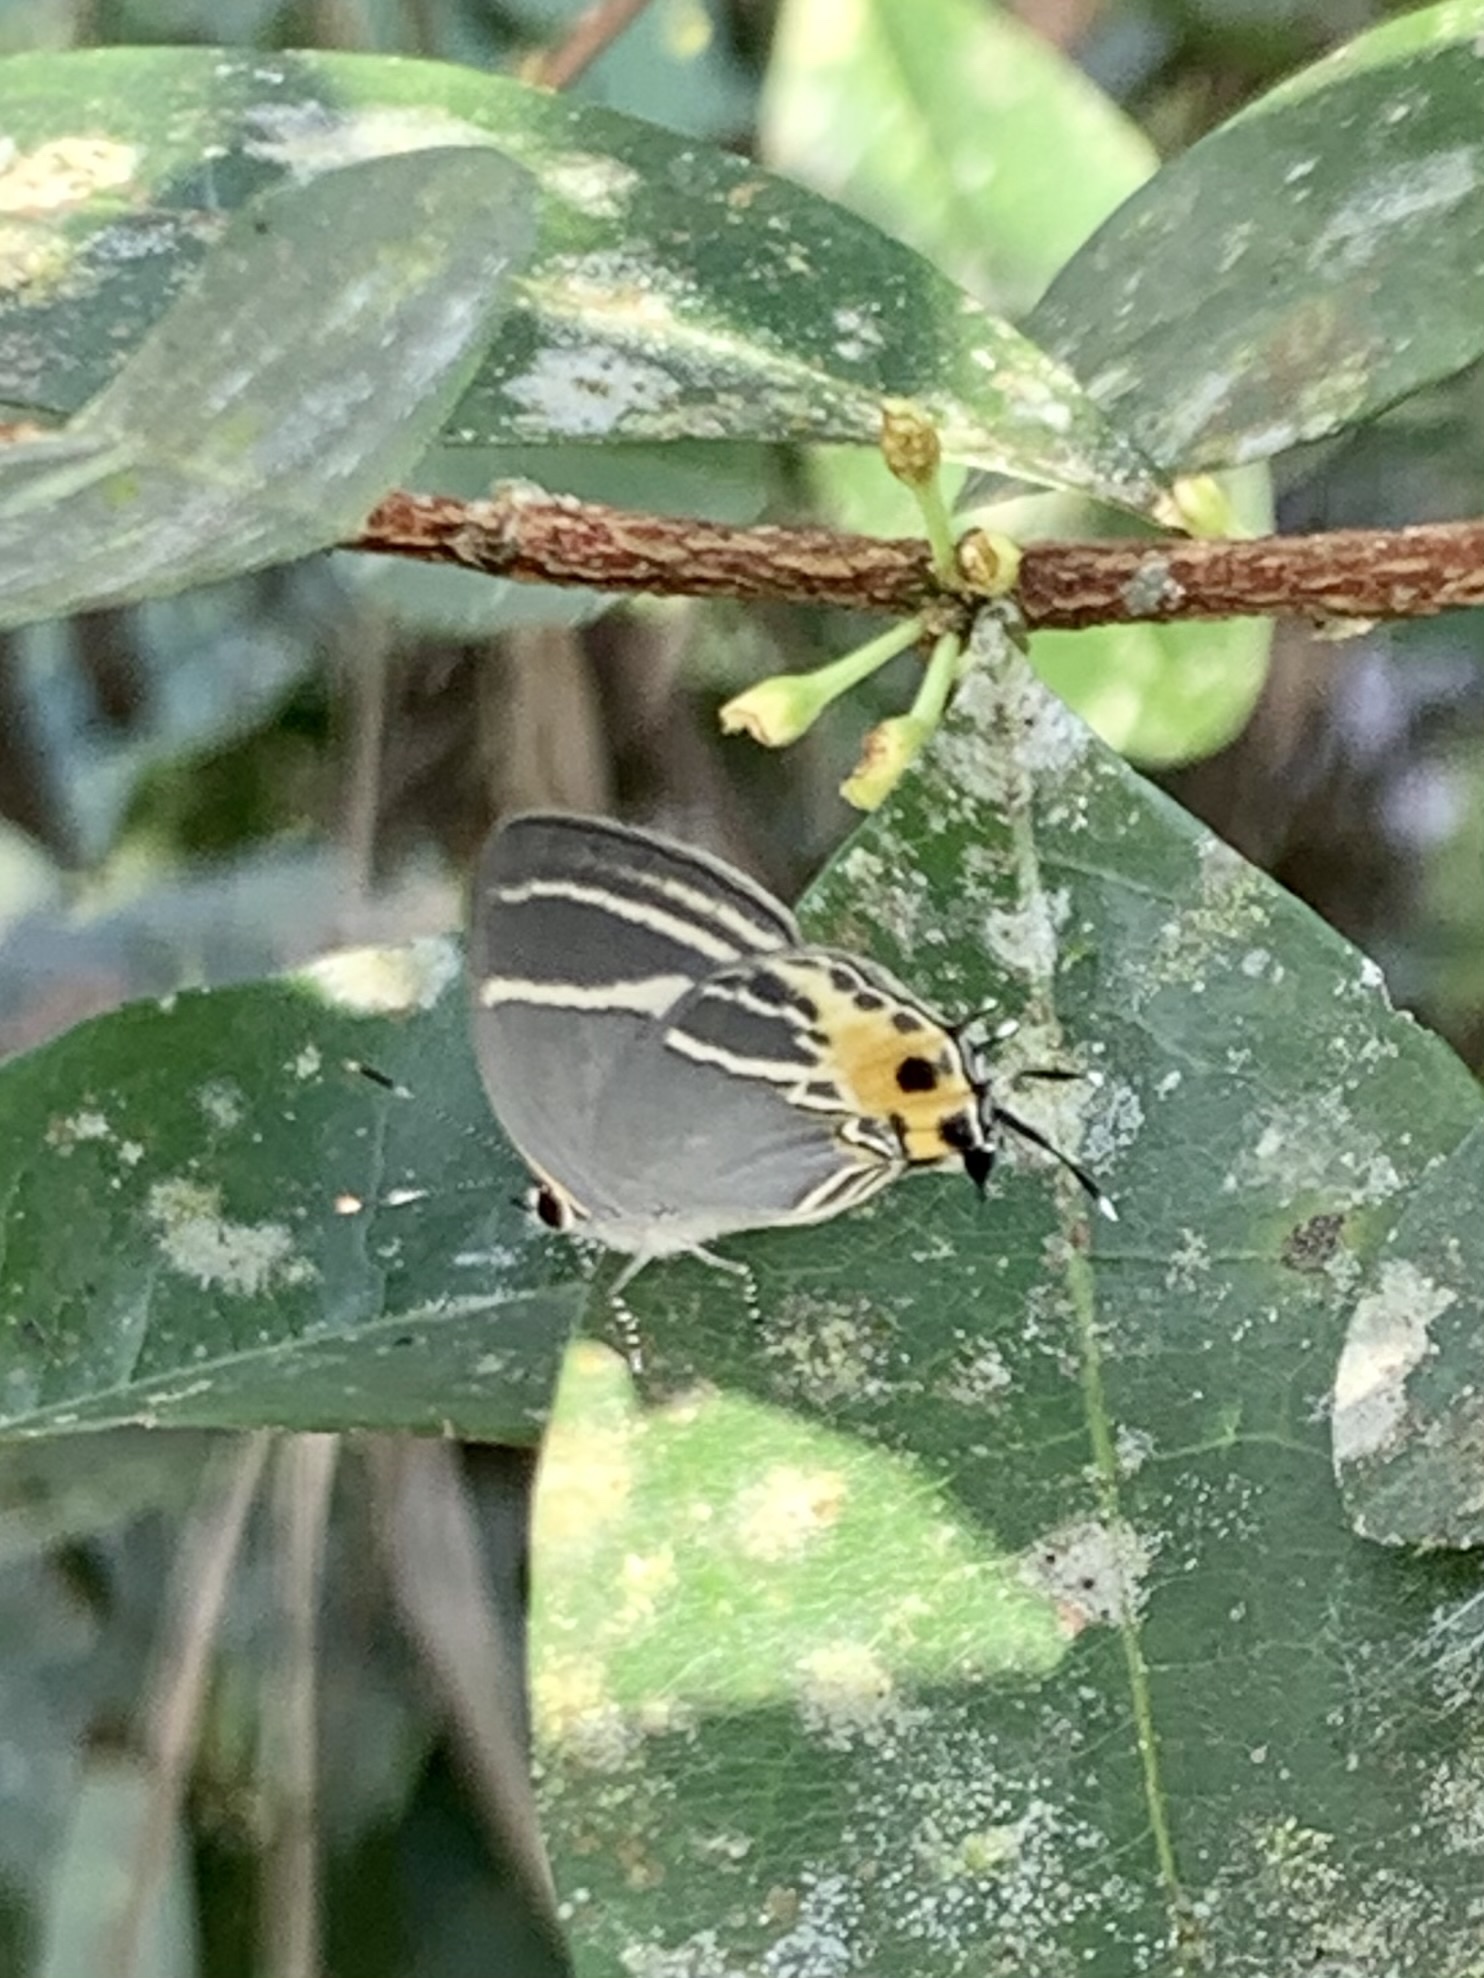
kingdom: Animalia
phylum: Arthropoda
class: Insecta
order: Lepidoptera
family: Lycaenidae
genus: Terenthina
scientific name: Terenthina
